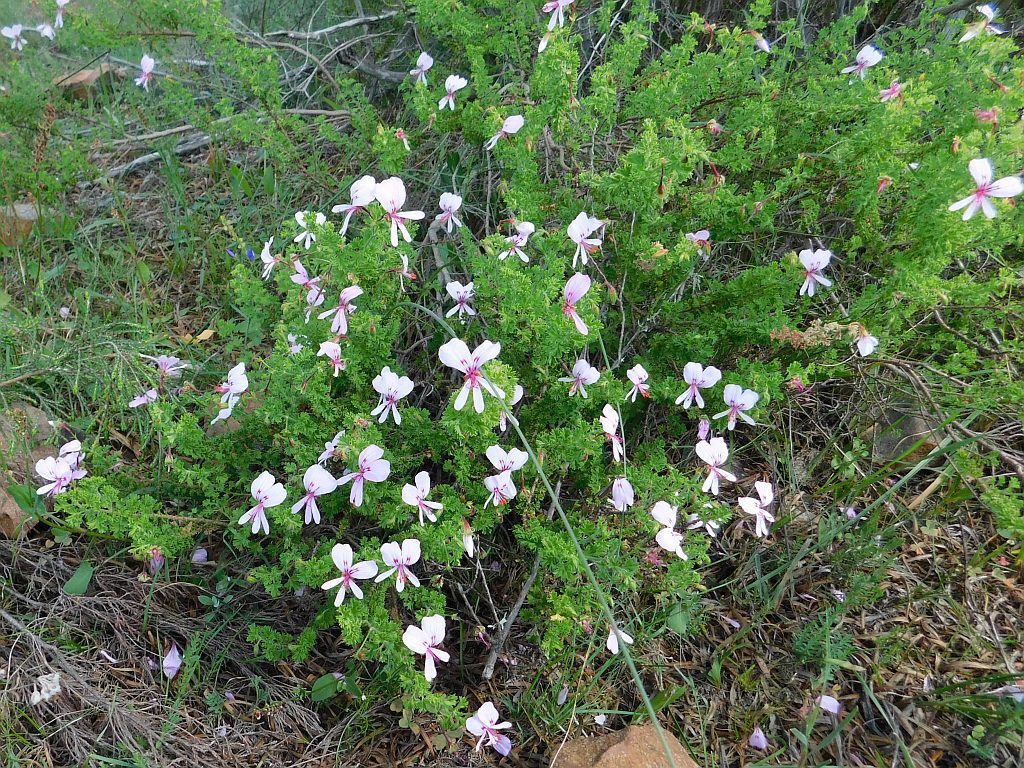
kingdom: Plantae
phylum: Tracheophyta
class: Magnoliopsida
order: Geraniales
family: Geraniaceae
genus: Pelargonium
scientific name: Pelargonium crispum
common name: Crisped-leaf pelargonium
